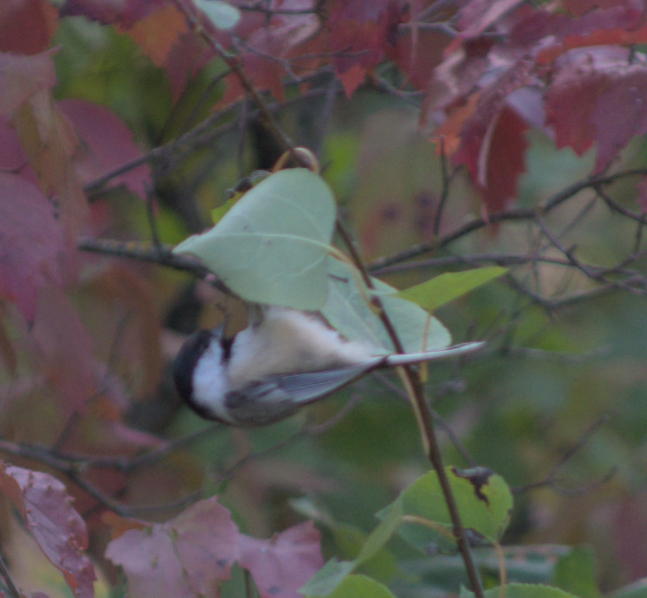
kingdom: Animalia
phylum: Chordata
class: Aves
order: Passeriformes
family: Paridae
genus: Poecile
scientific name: Poecile atricapillus
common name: Black-capped chickadee
